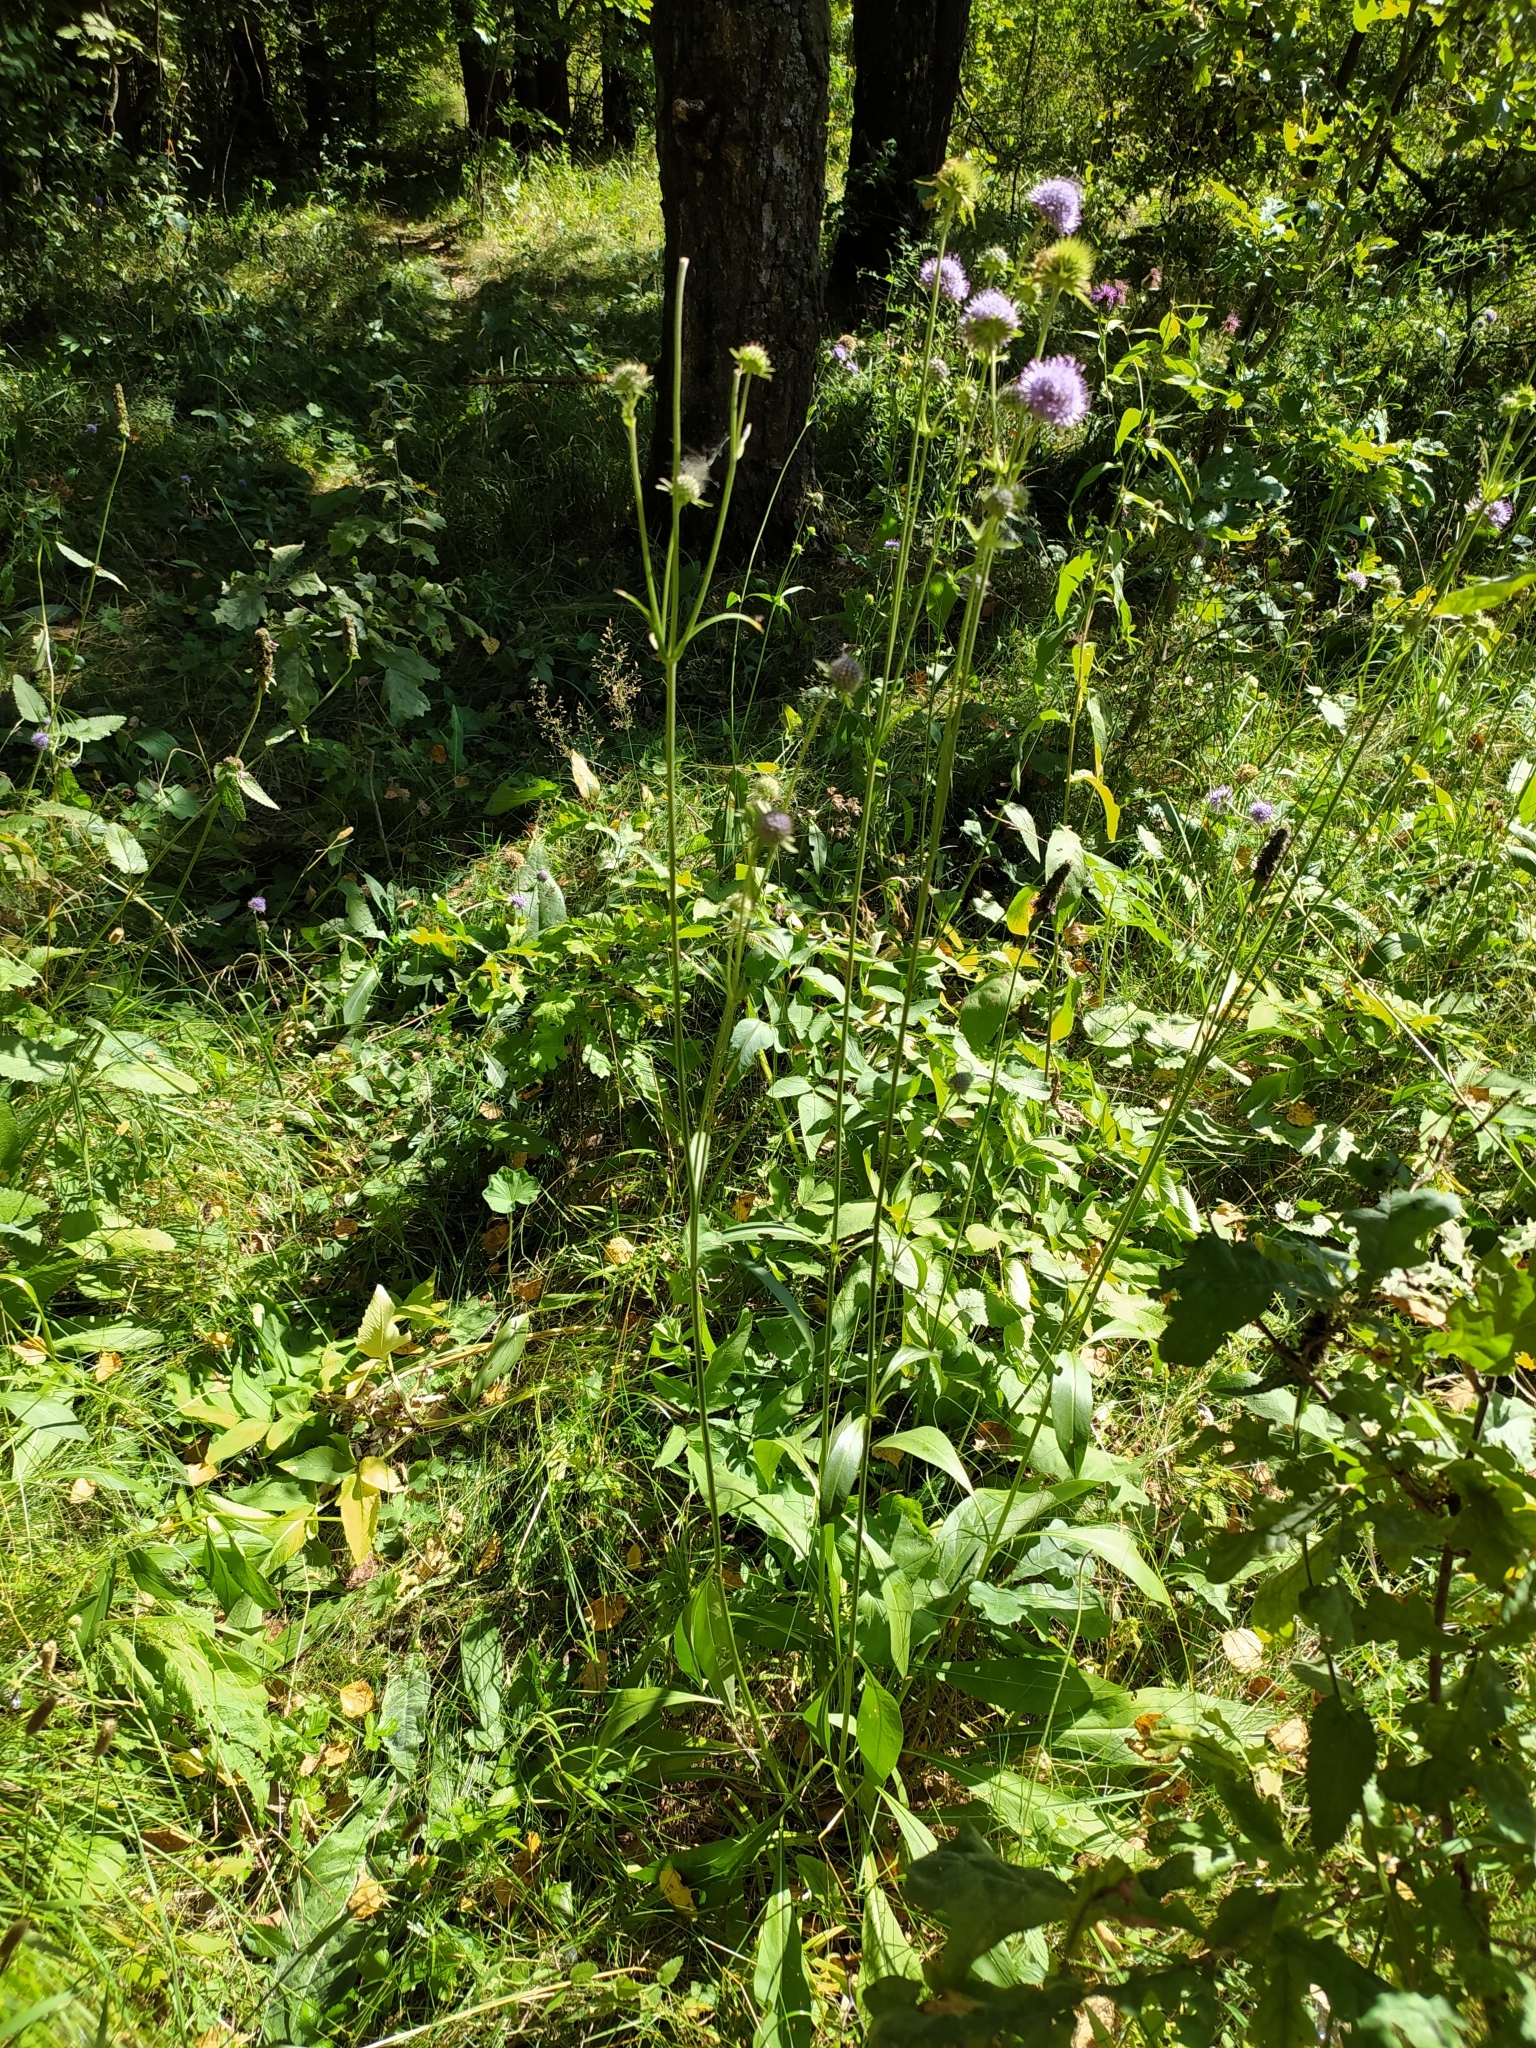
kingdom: Plantae
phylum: Tracheophyta
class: Magnoliopsida
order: Dipsacales
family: Caprifoliaceae
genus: Succisa
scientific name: Succisa pratensis
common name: Devil's-bit
